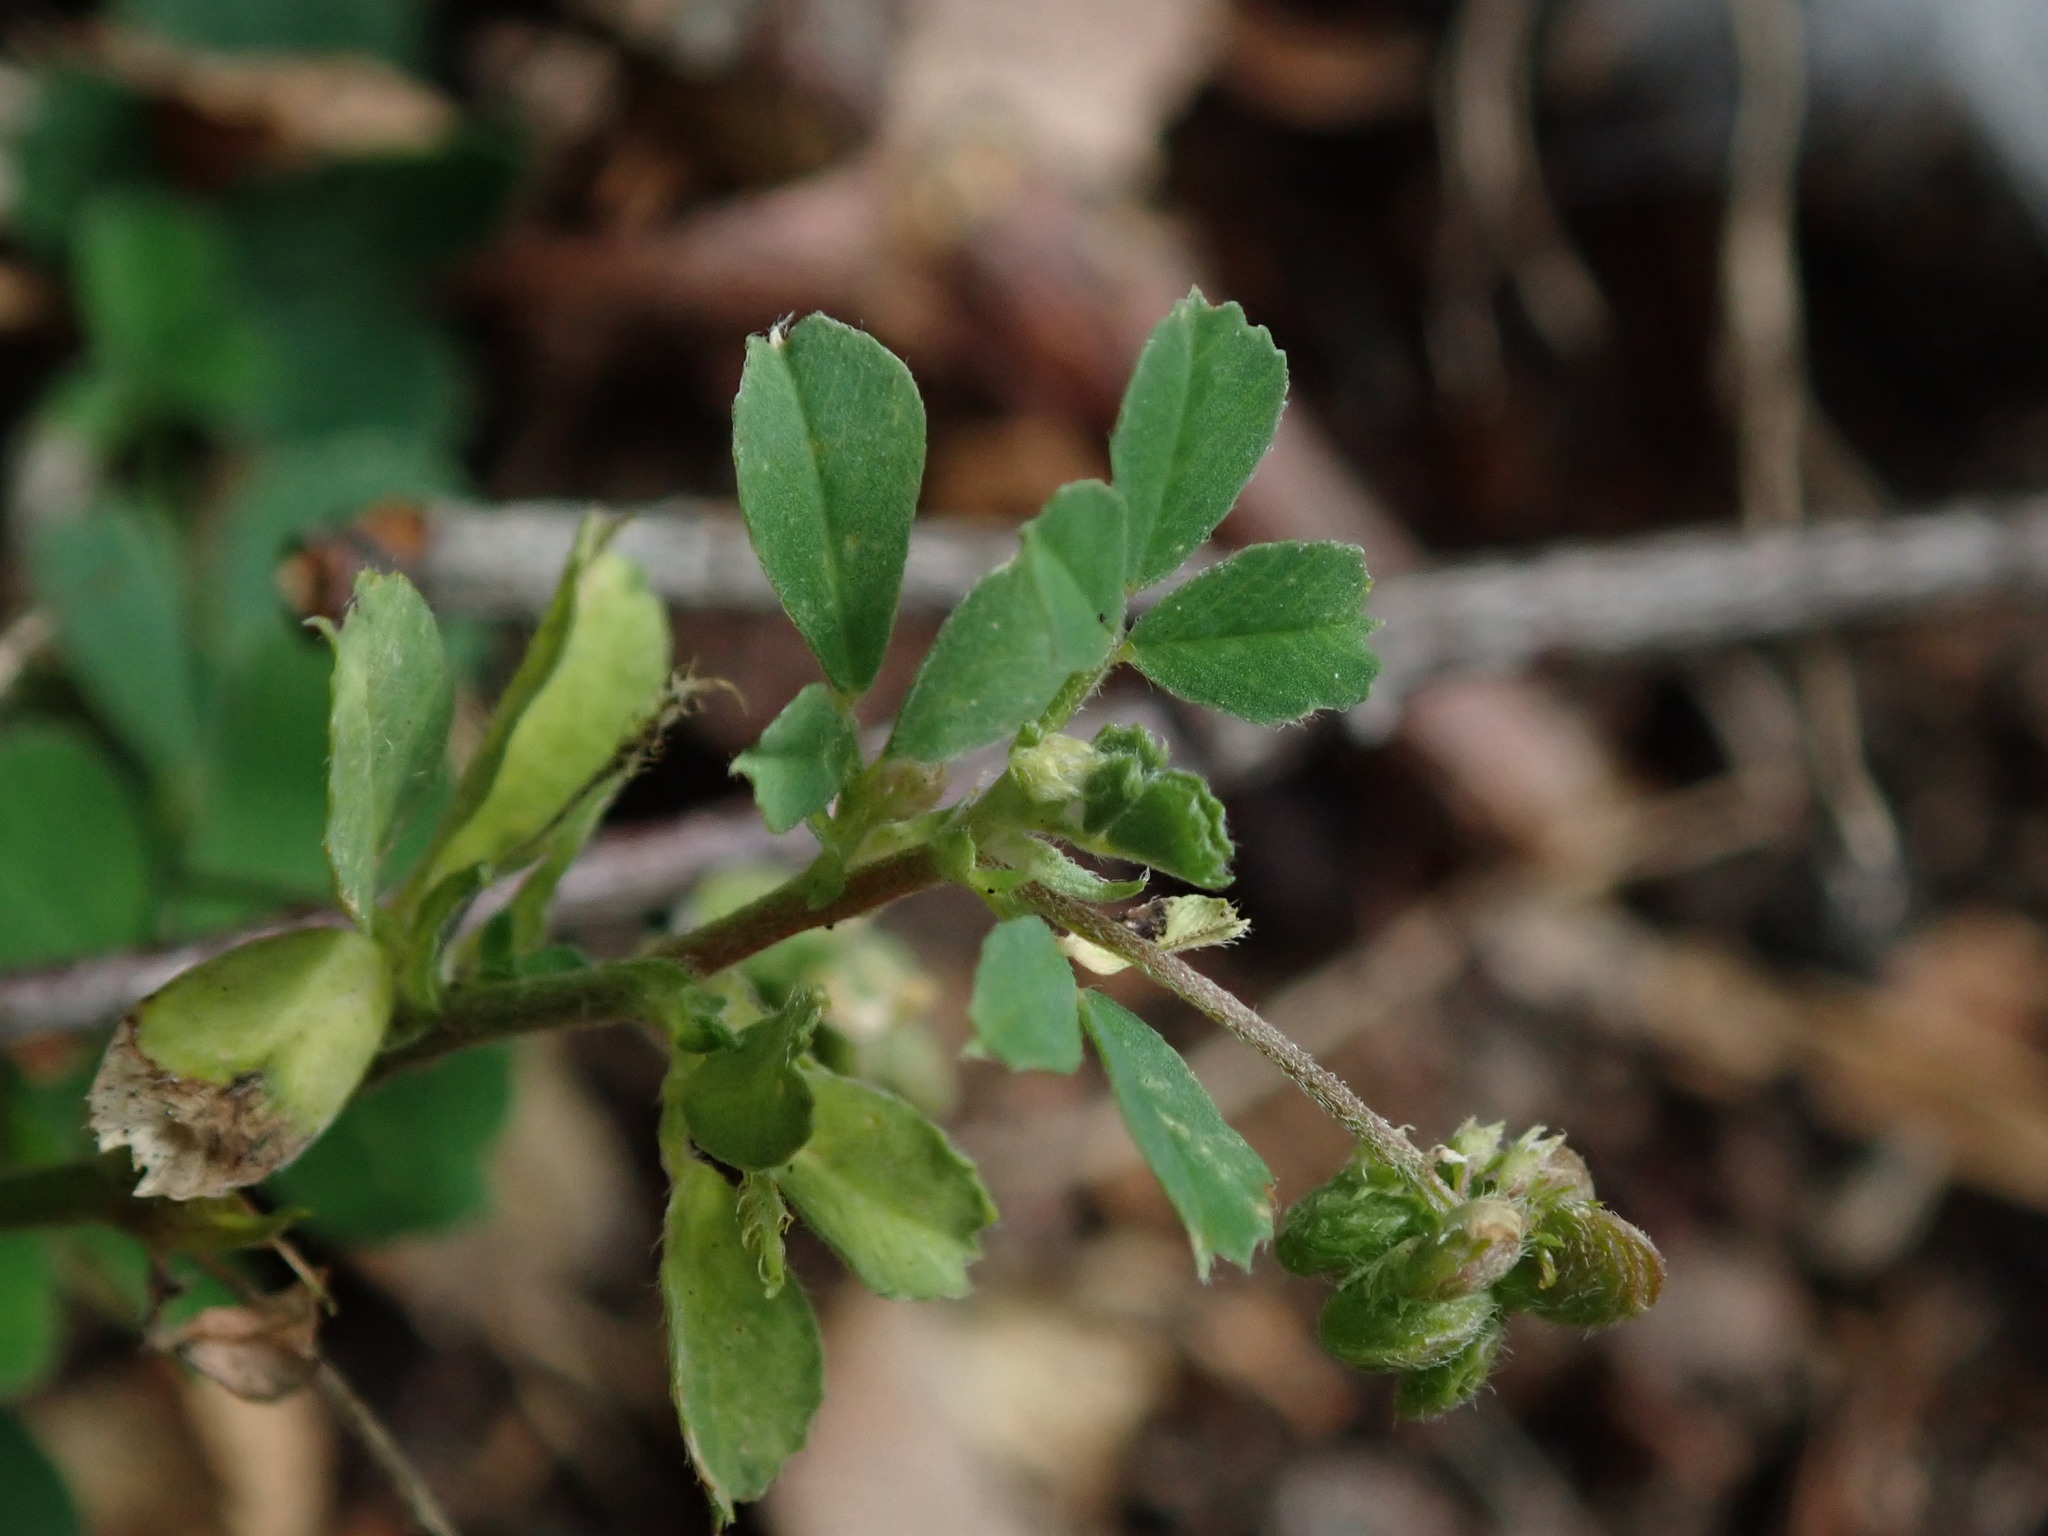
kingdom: Plantae
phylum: Tracheophyta
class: Magnoliopsida
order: Fabales
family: Fabaceae
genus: Medicago
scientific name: Medicago lupulina
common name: Black medick
